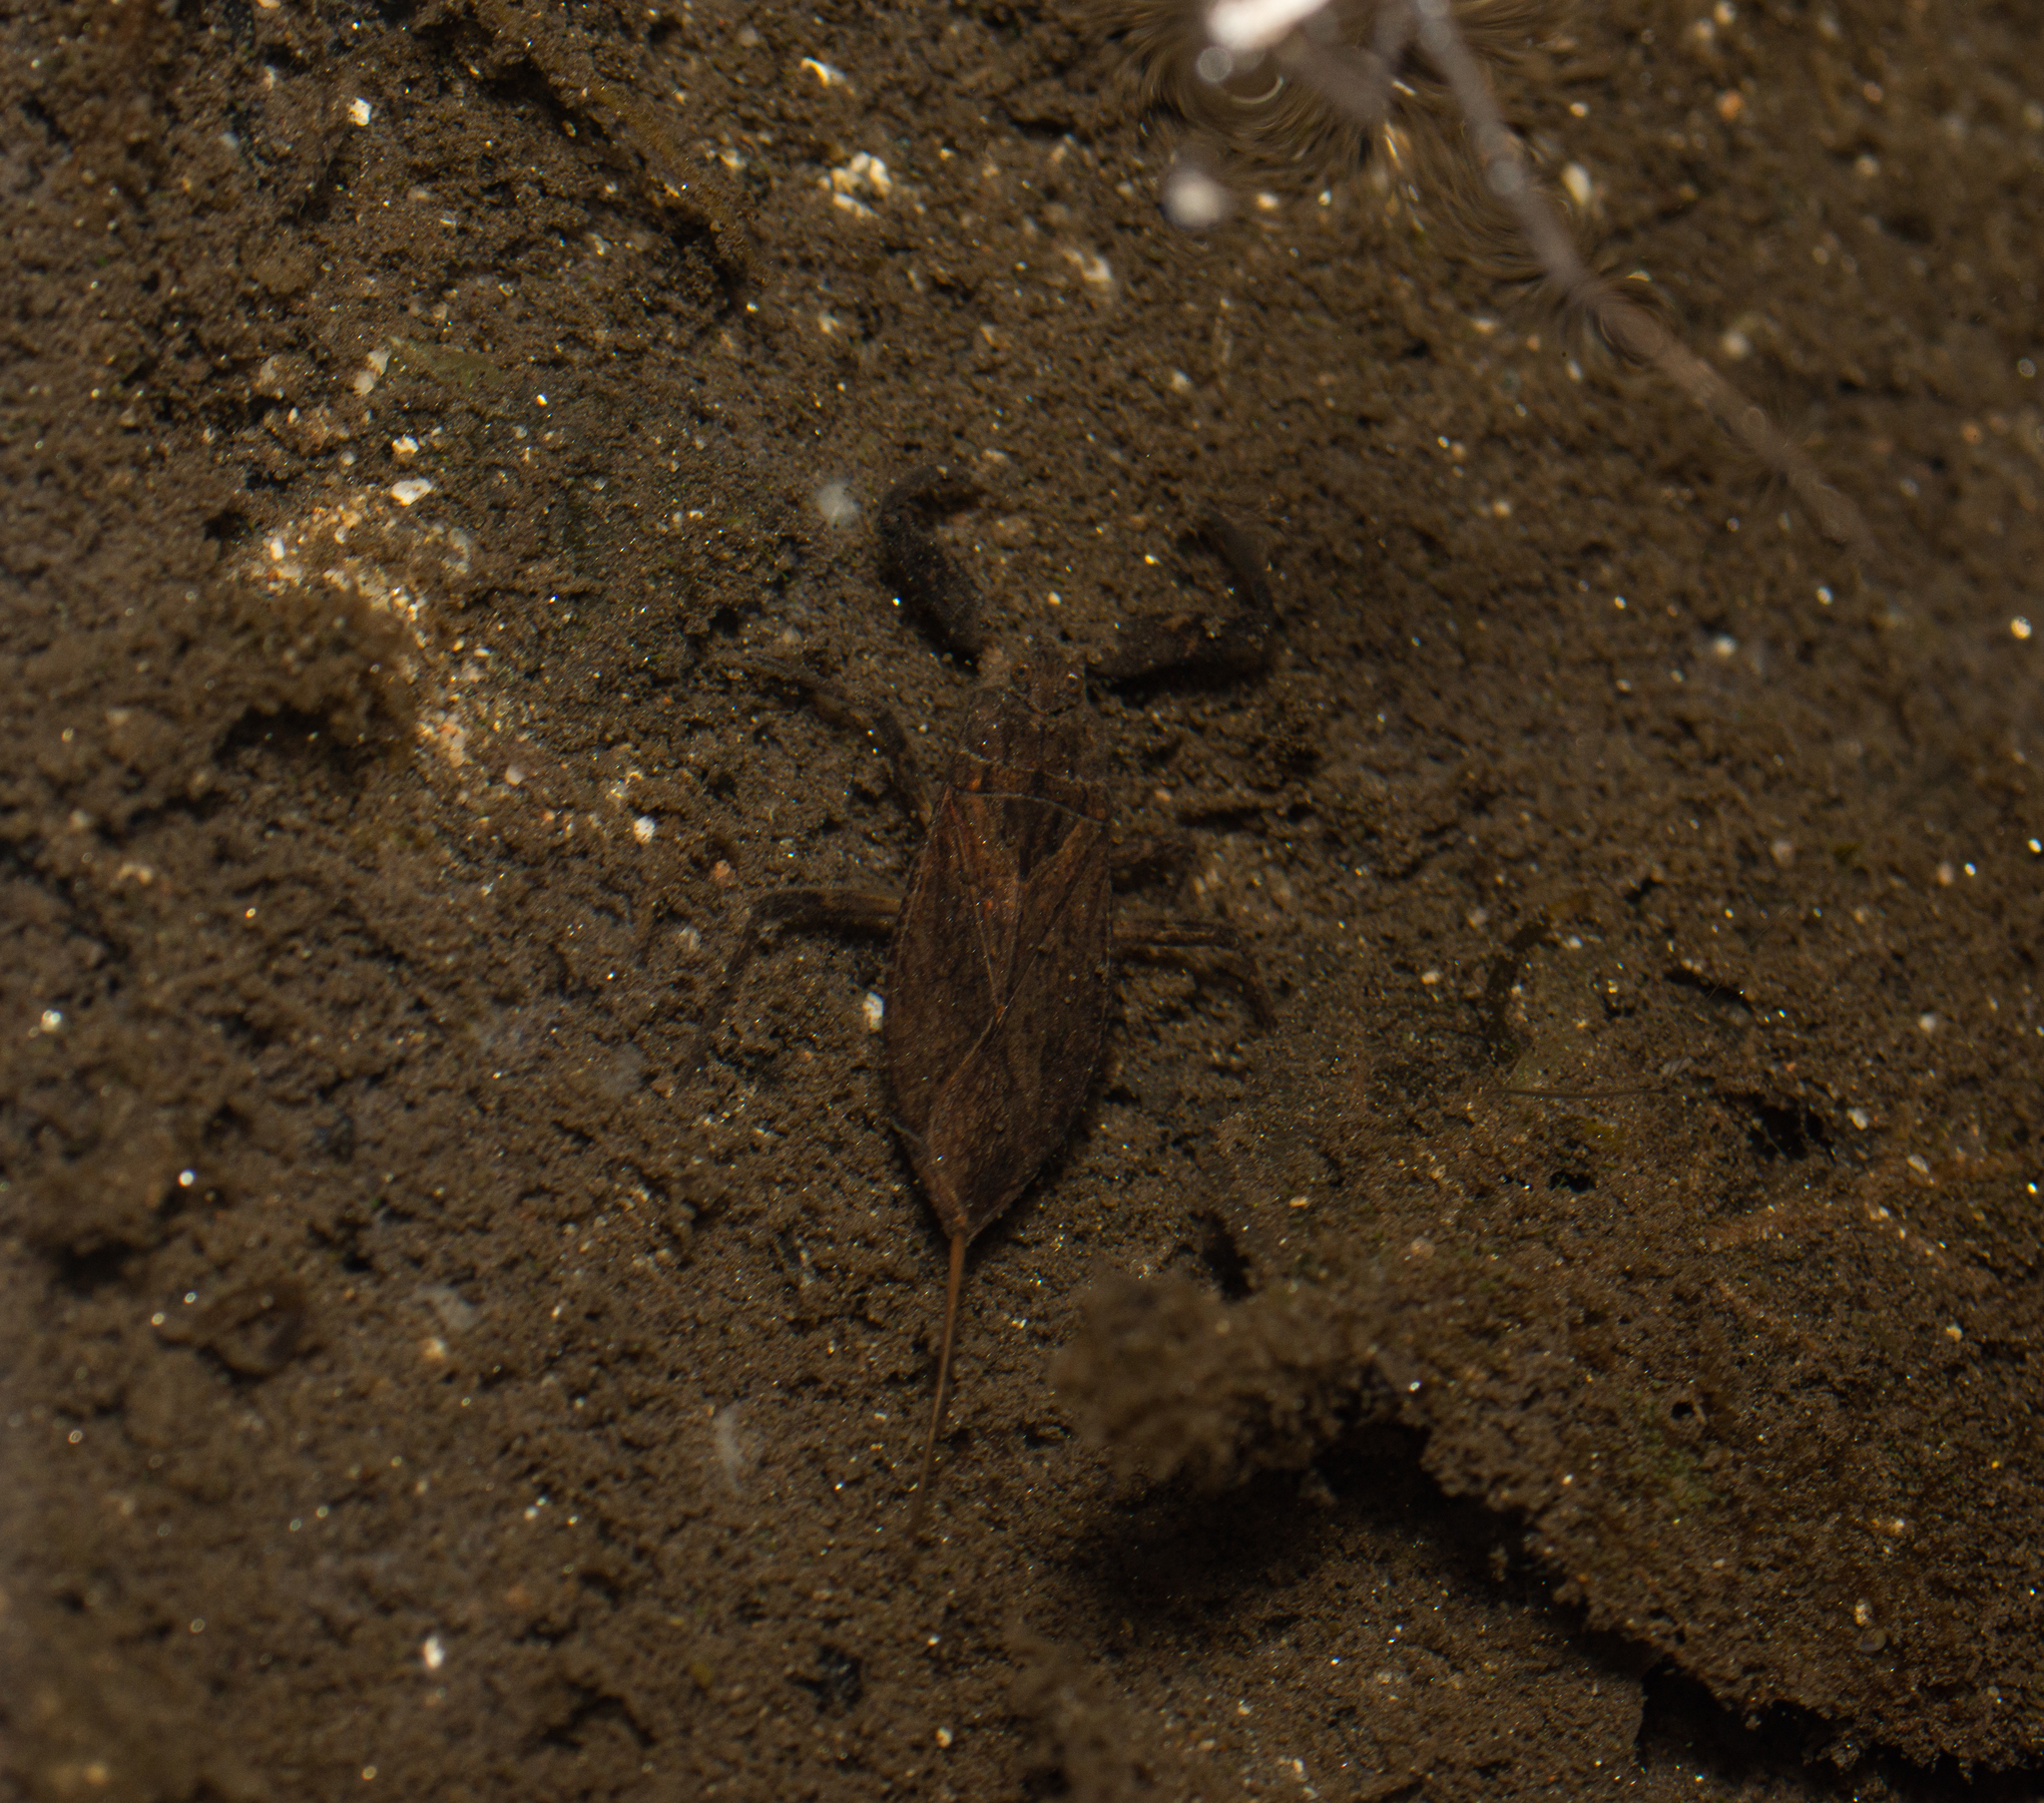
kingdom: Animalia
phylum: Arthropoda
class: Insecta
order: Hemiptera
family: Nepidae
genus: Nepa
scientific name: Nepa cinerea
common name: Water scorpion
